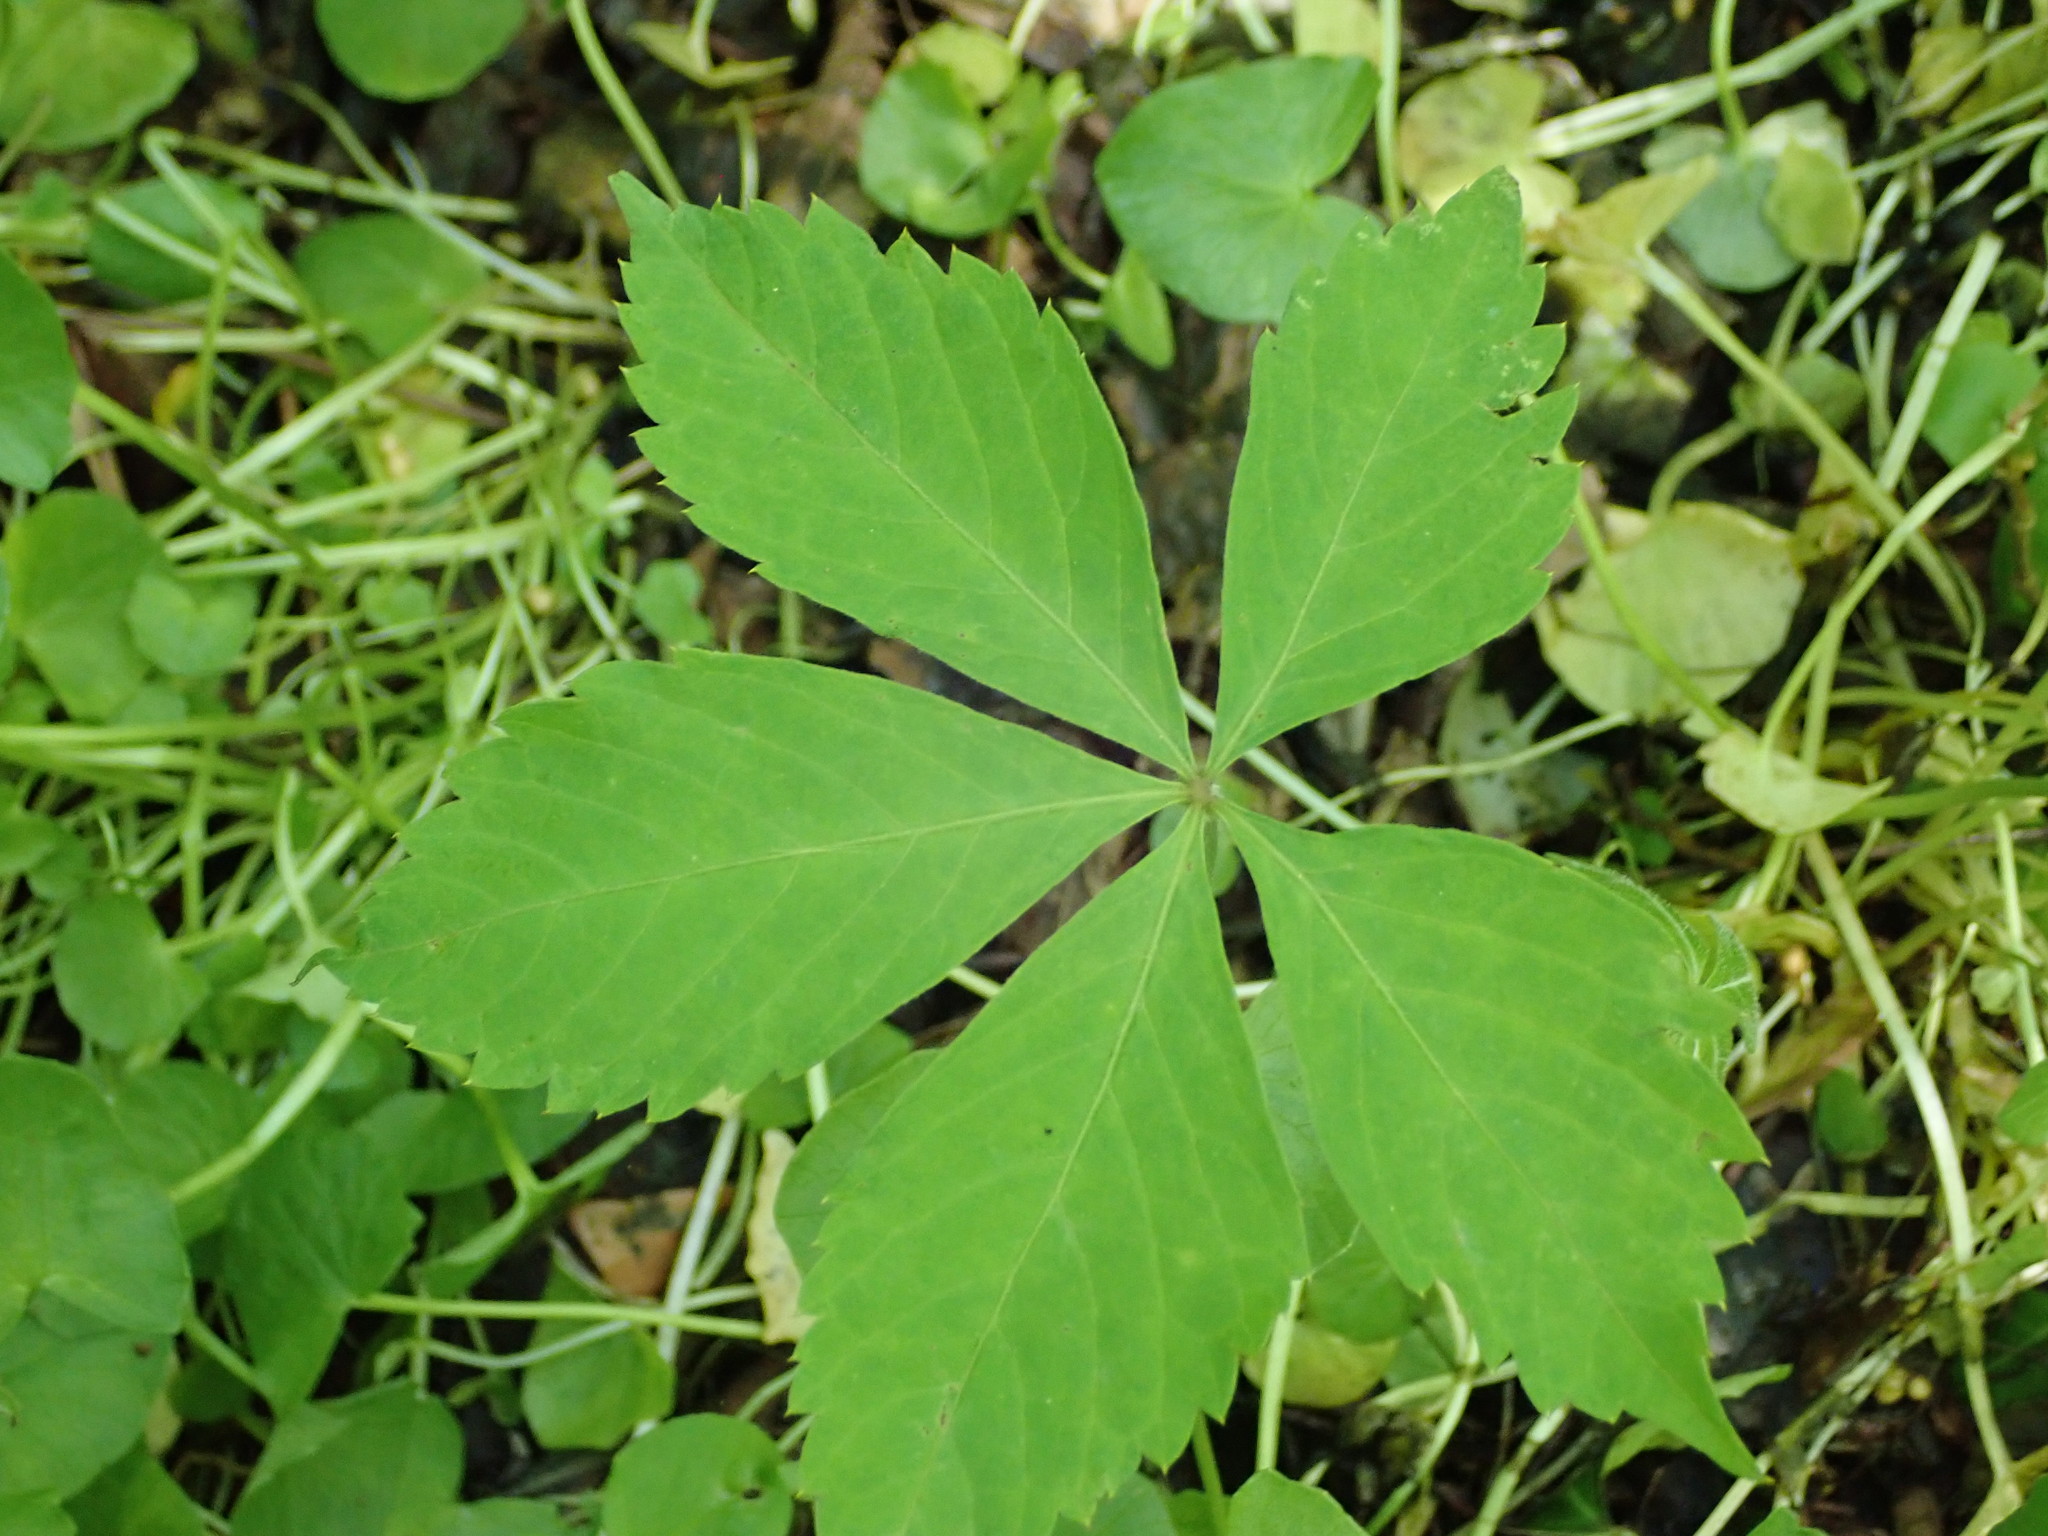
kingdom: Plantae
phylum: Tracheophyta
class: Magnoliopsida
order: Vitales
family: Vitaceae
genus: Parthenocissus
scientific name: Parthenocissus quinquefolia
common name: Virginia-creeper
